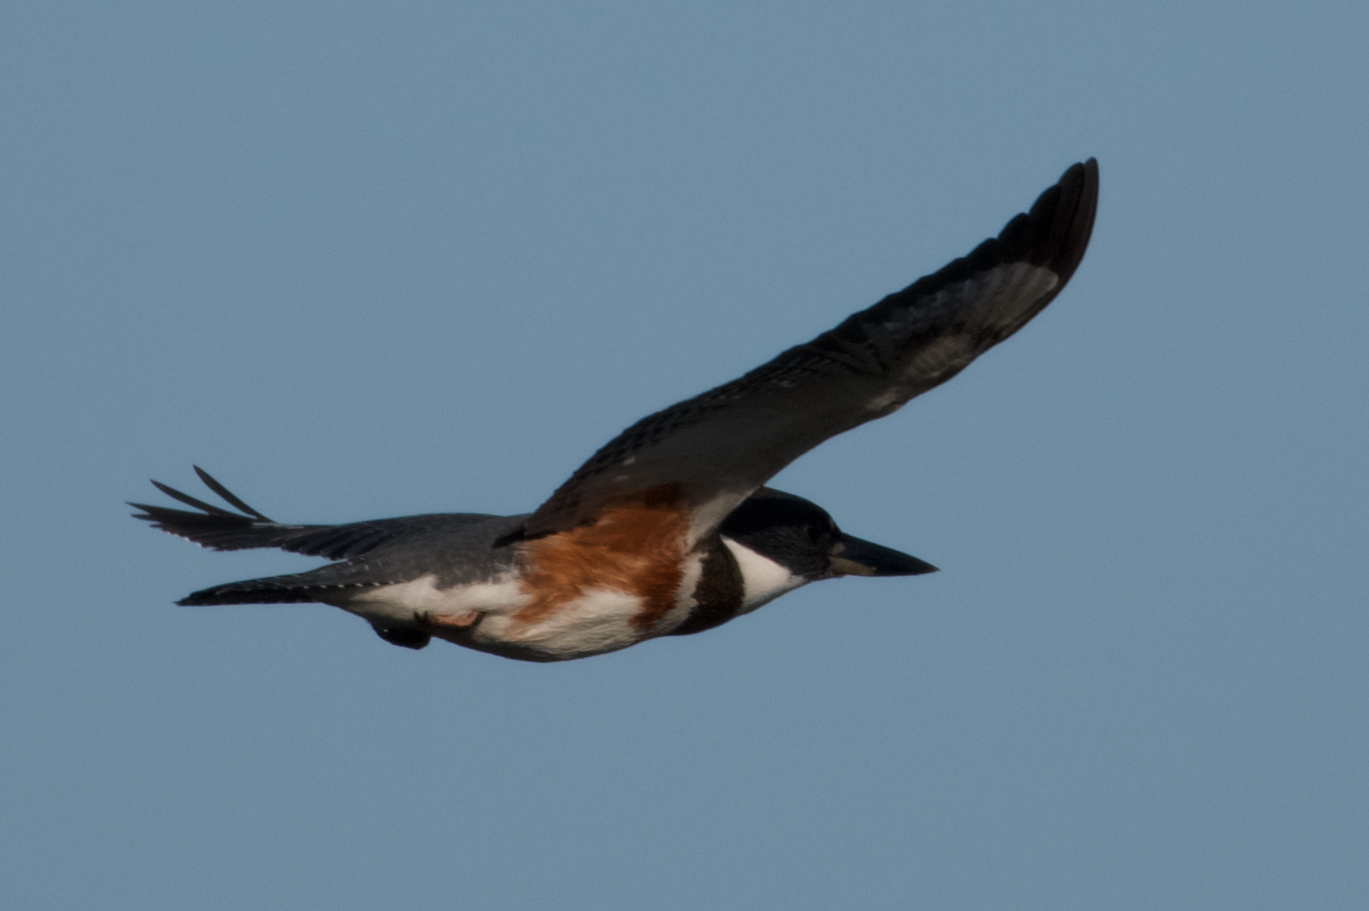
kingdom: Animalia
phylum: Chordata
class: Aves
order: Coraciiformes
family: Alcedinidae
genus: Megaceryle
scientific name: Megaceryle alcyon
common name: Belted kingfisher
